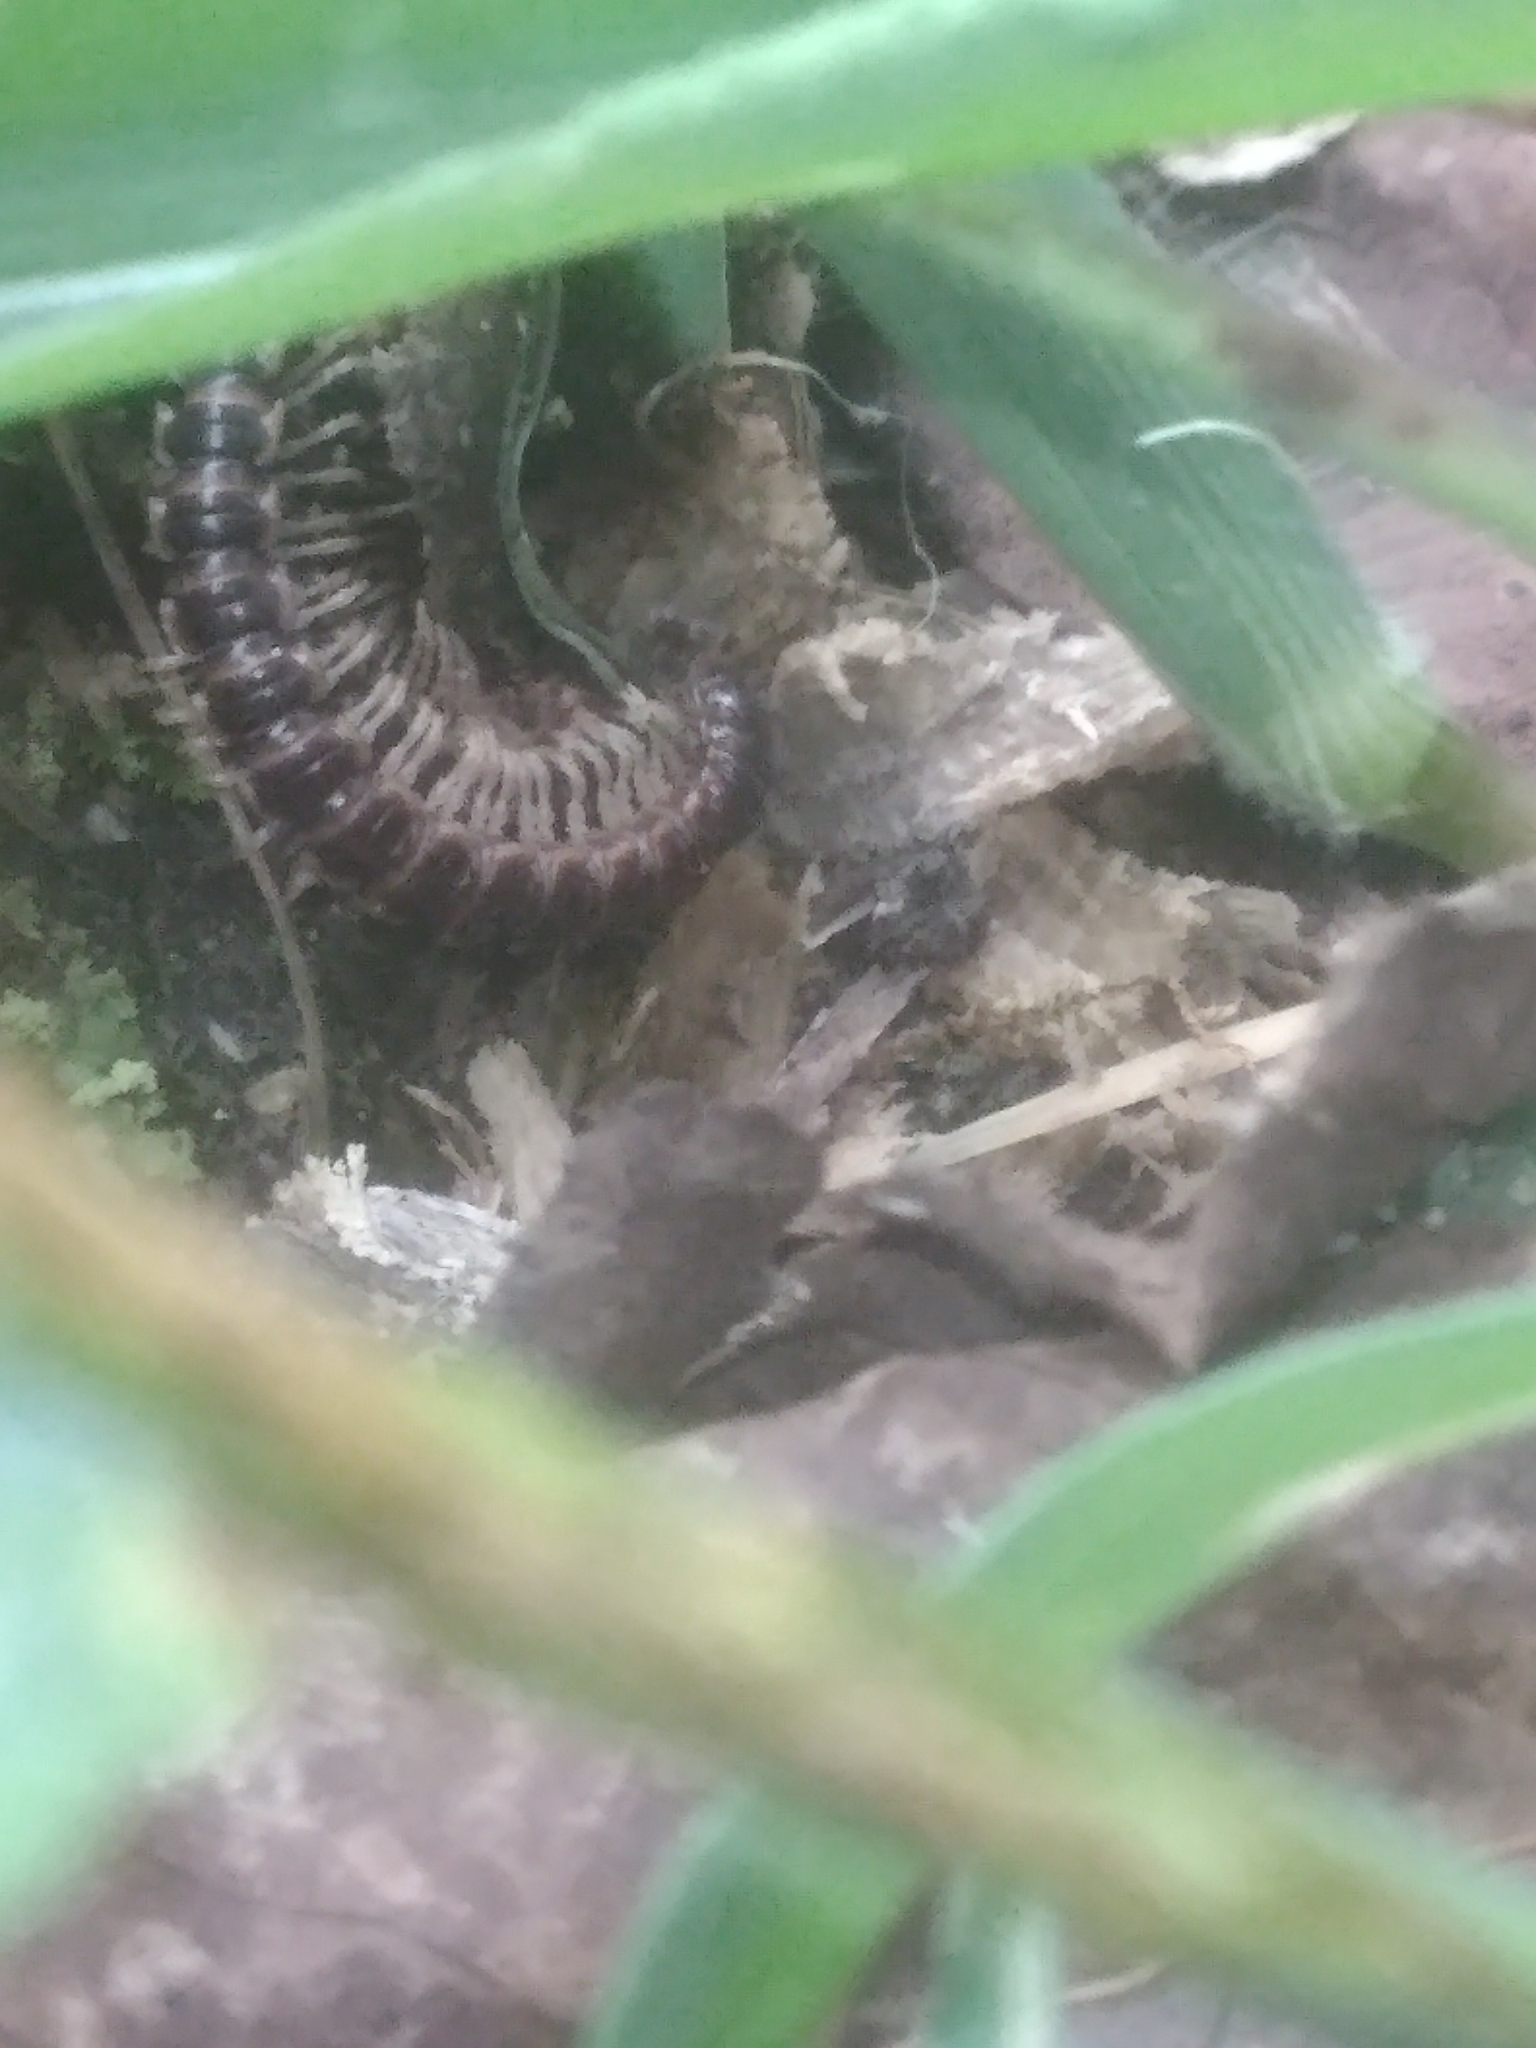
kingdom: Animalia
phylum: Arthropoda
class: Diplopoda
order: Polydesmida
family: Paradoxosomatidae
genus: Oxidus
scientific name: Oxidus gracilis
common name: Greenhouse millipede
